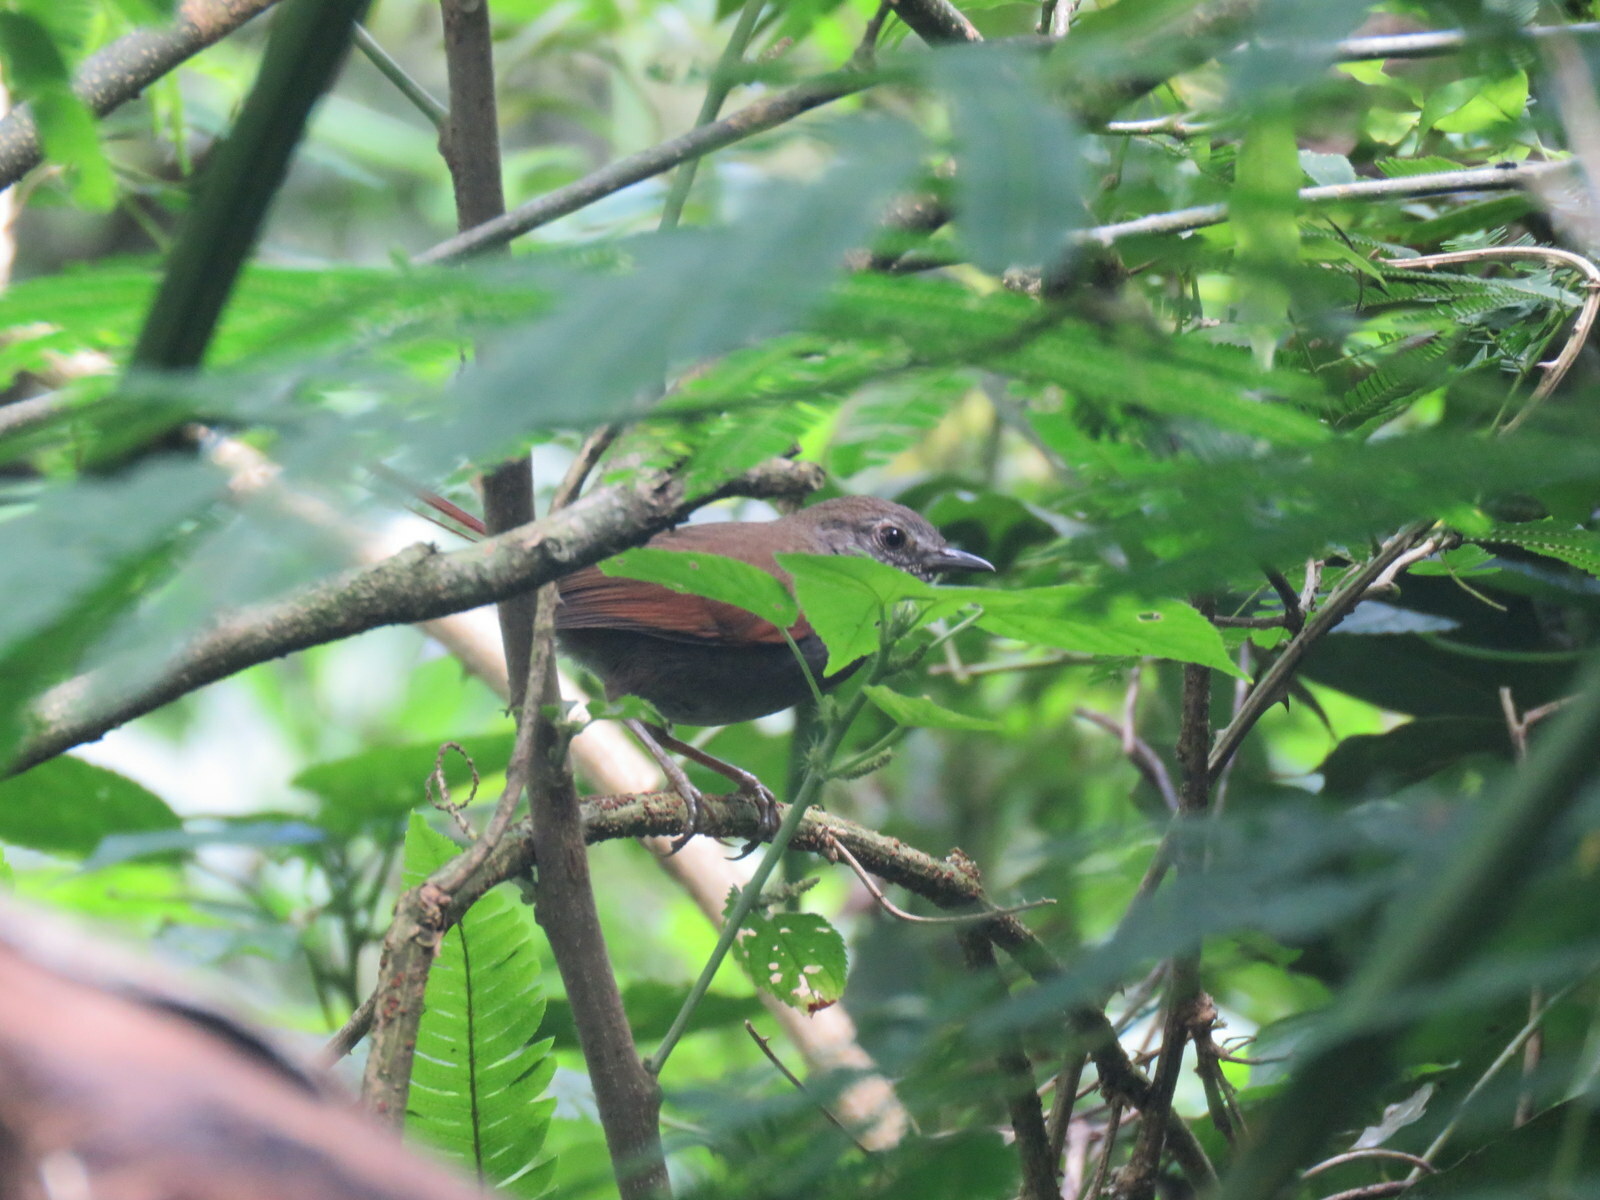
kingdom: Animalia
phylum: Chordata
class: Aves
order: Passeriformes
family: Furnariidae
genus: Synallaxis
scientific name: Synallaxis cinerascens
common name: Grey-bellied spinetail
